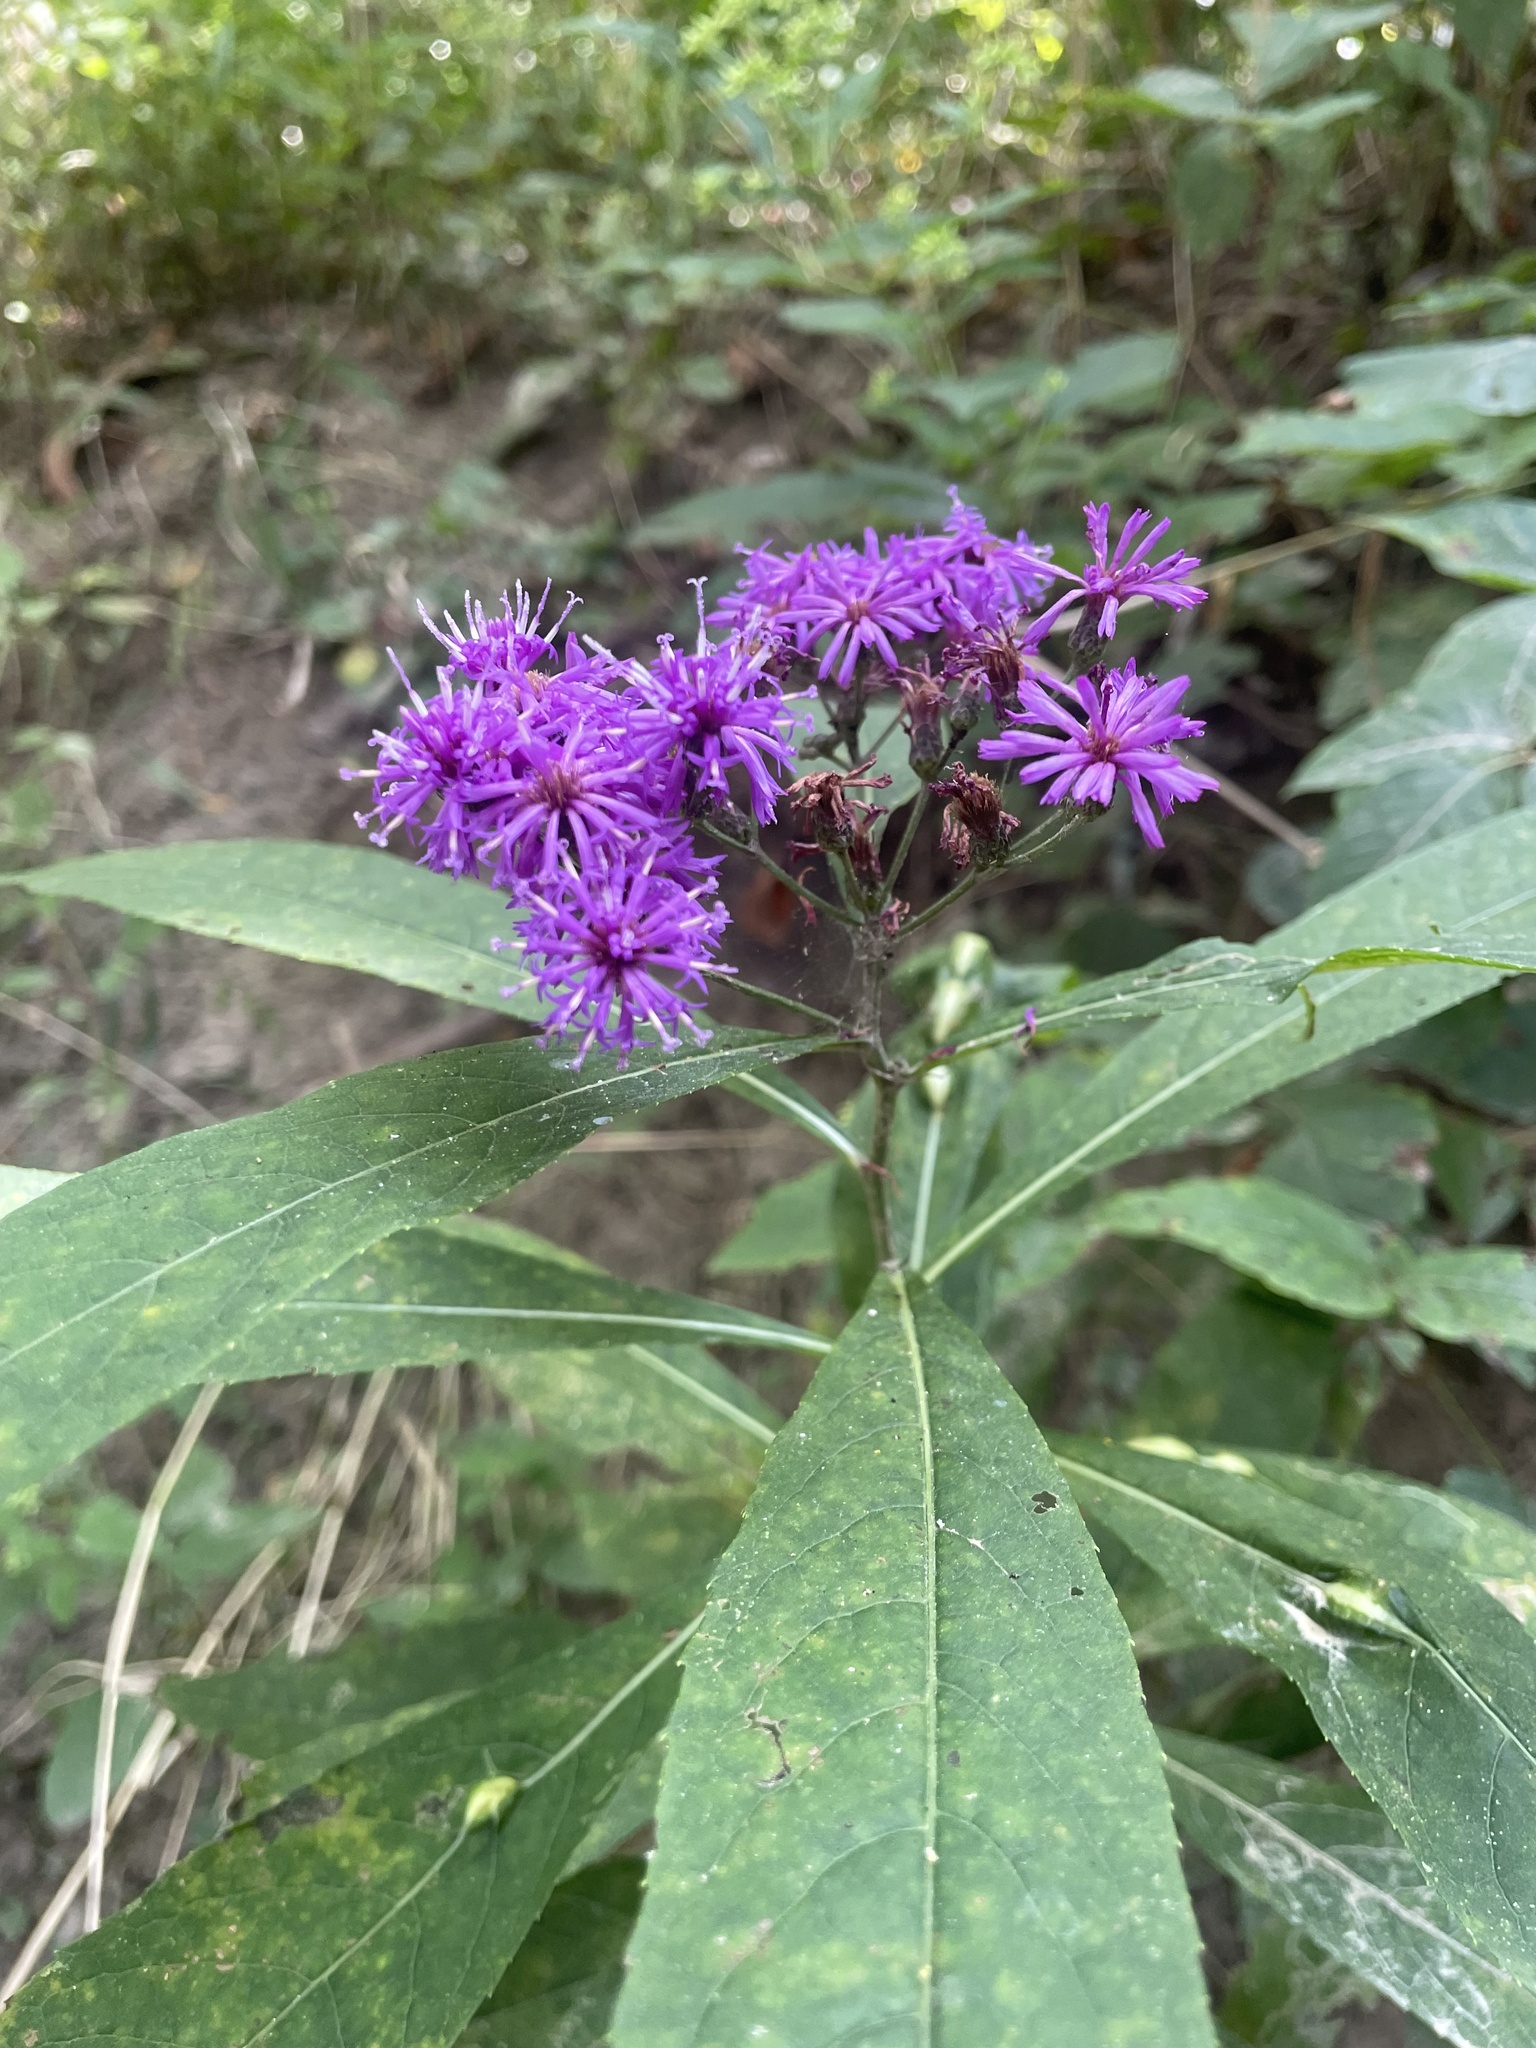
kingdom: Plantae
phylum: Tracheophyta
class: Magnoliopsida
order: Asterales
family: Asteraceae
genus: Vernonia
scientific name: Vernonia gigantea
